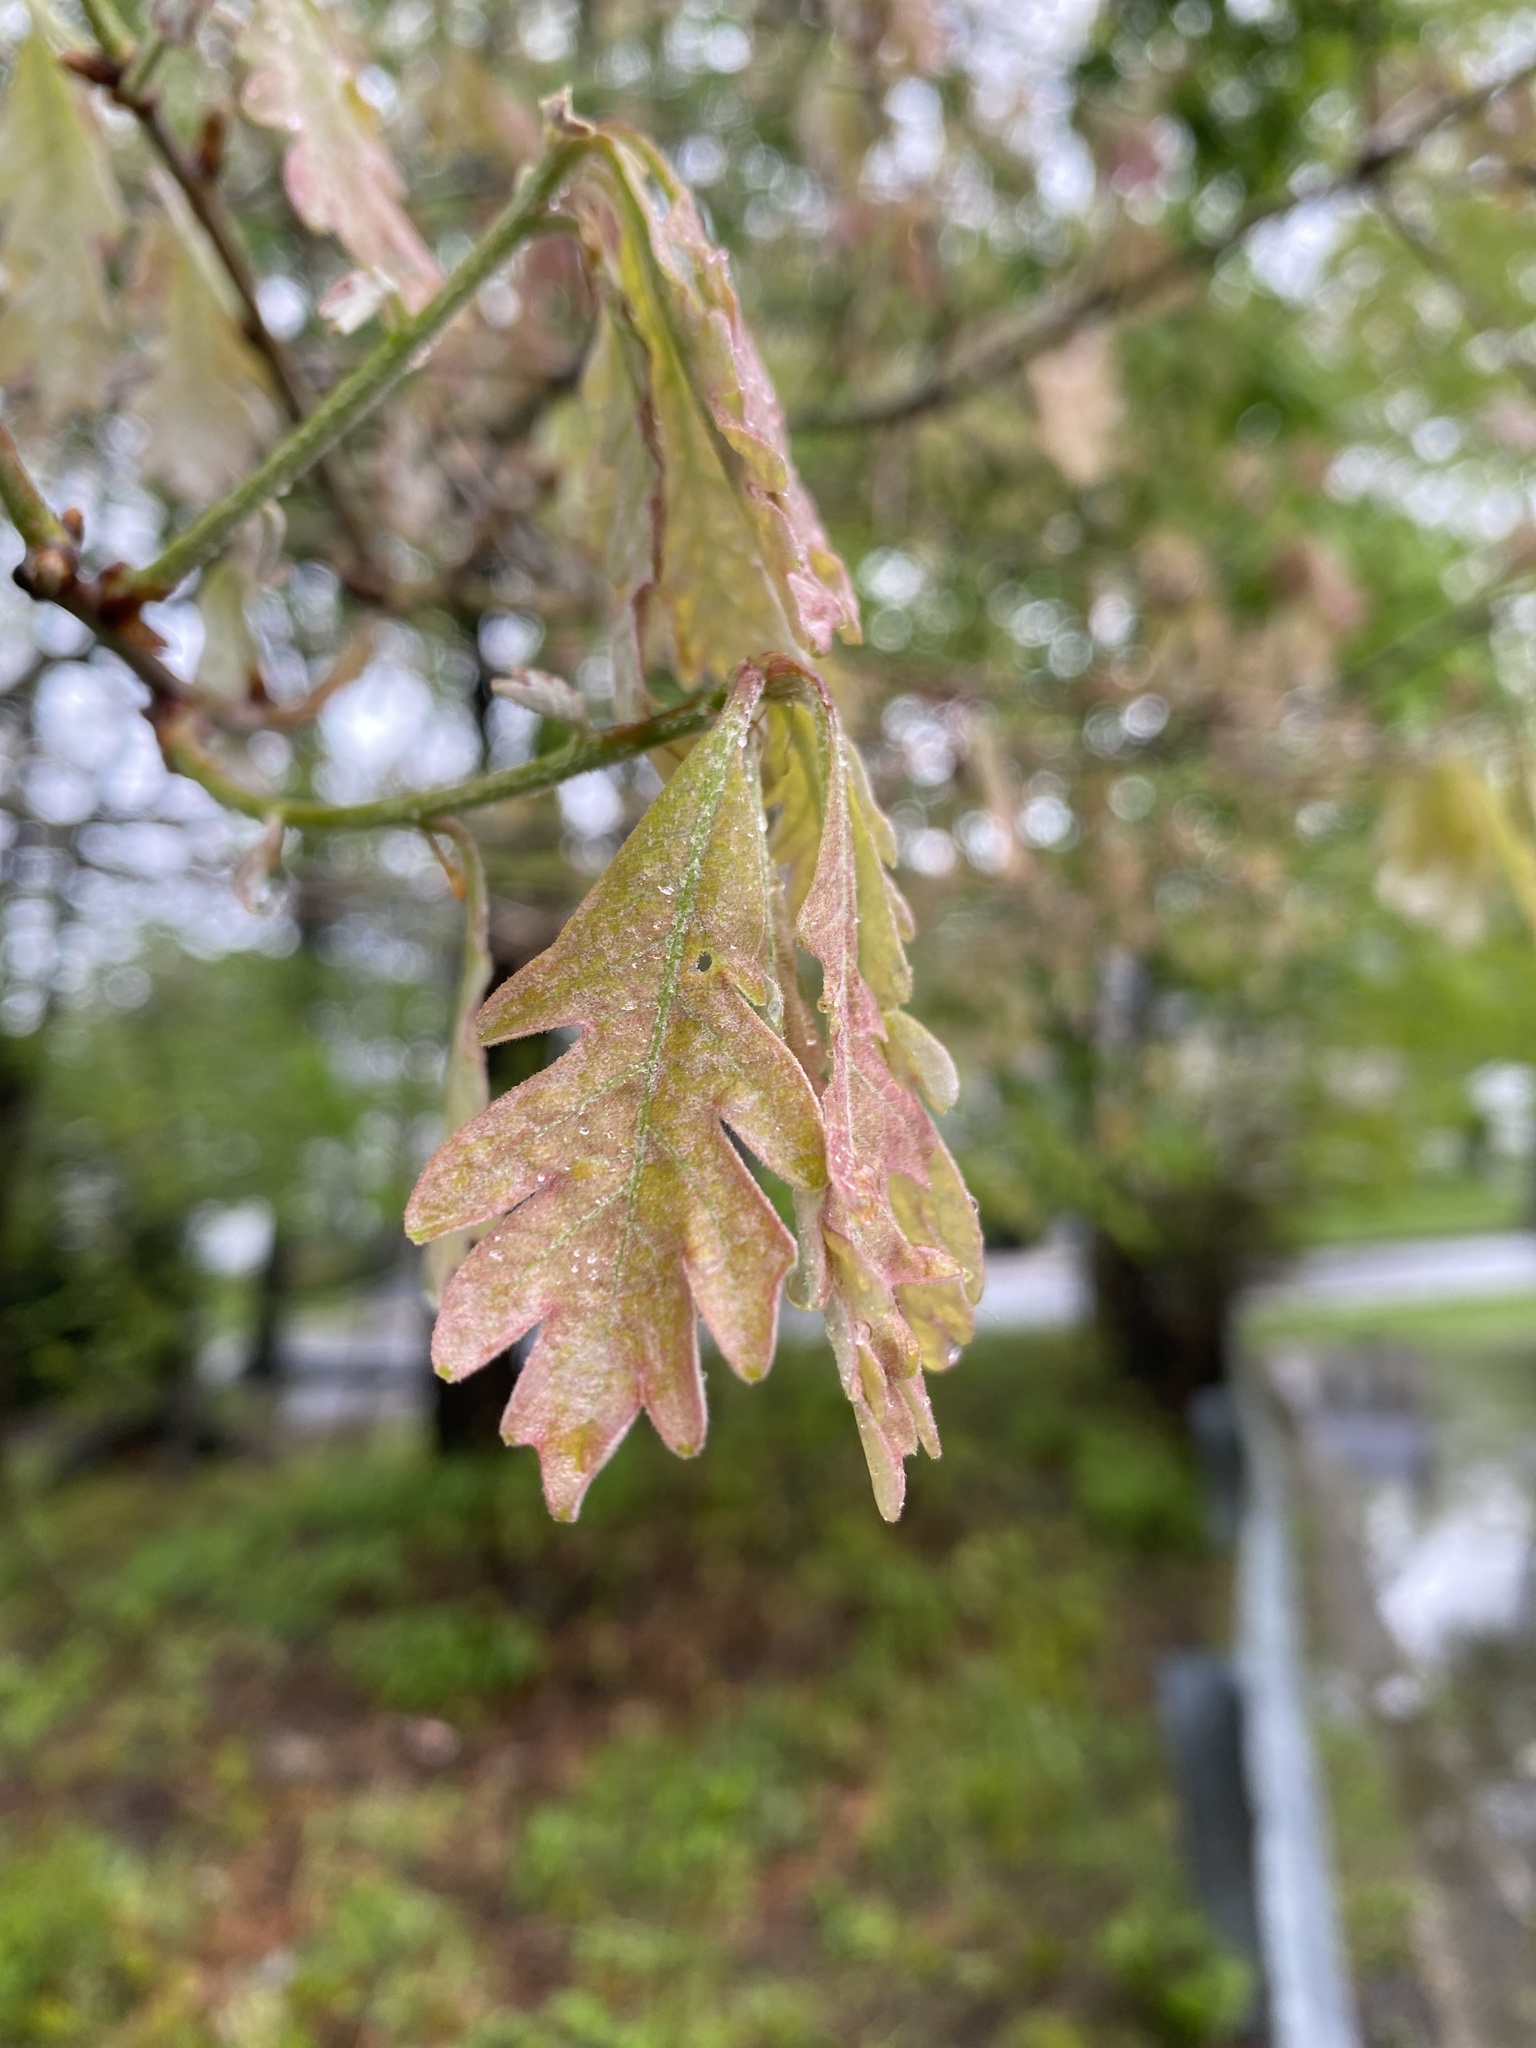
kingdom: Plantae
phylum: Tracheophyta
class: Magnoliopsida
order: Fagales
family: Fagaceae
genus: Quercus
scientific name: Quercus alba
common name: White oak
